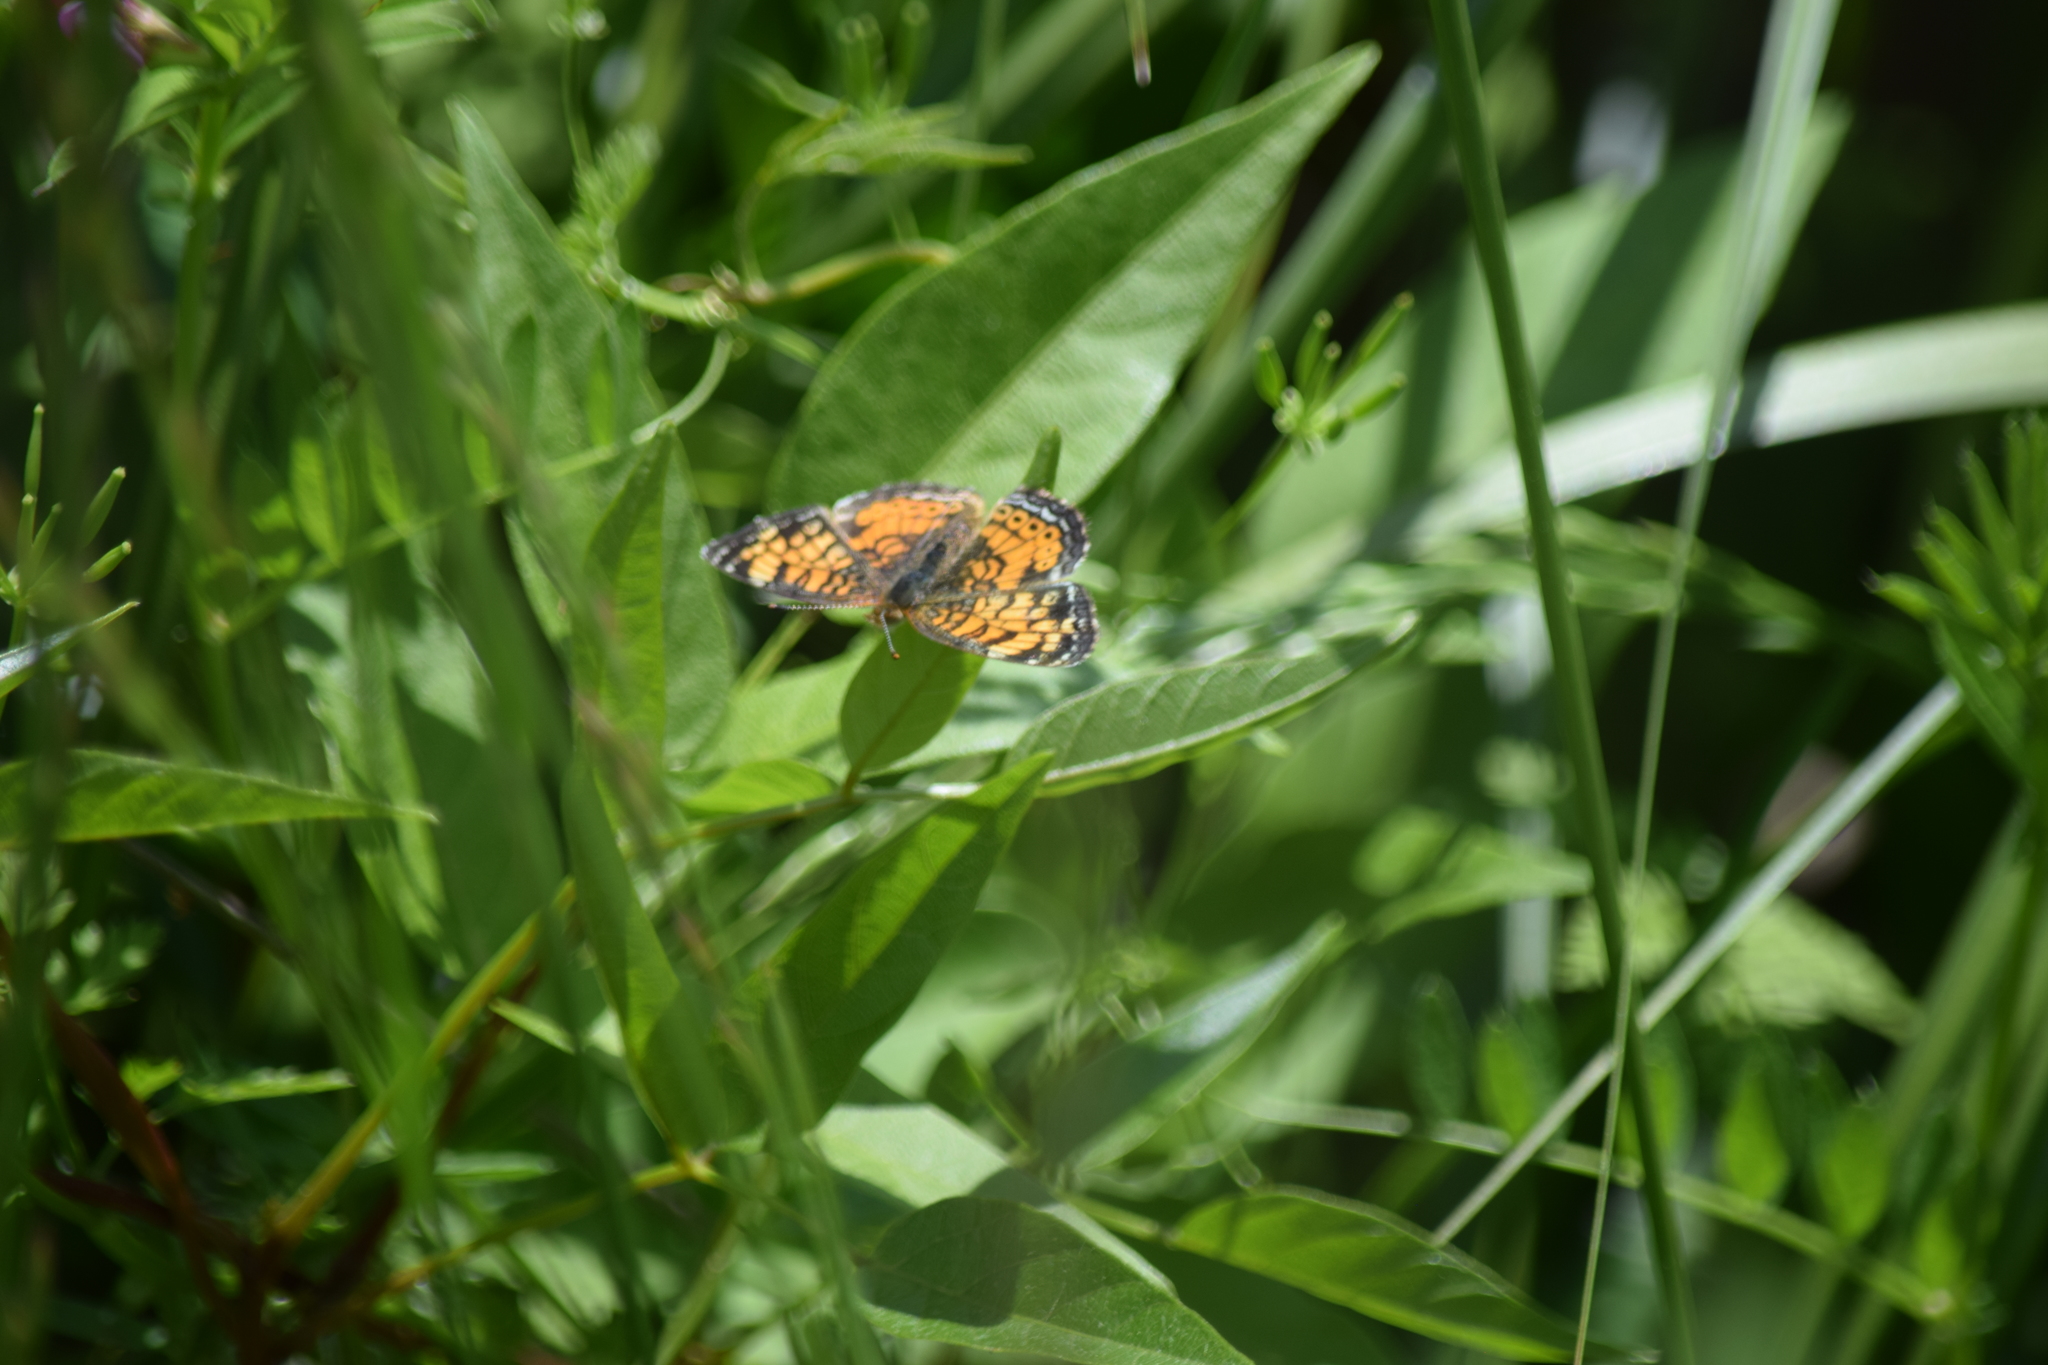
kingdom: Animalia
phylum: Arthropoda
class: Insecta
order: Lepidoptera
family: Nymphalidae
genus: Phyciodes
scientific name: Phyciodes tharos
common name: Pearl crescent
